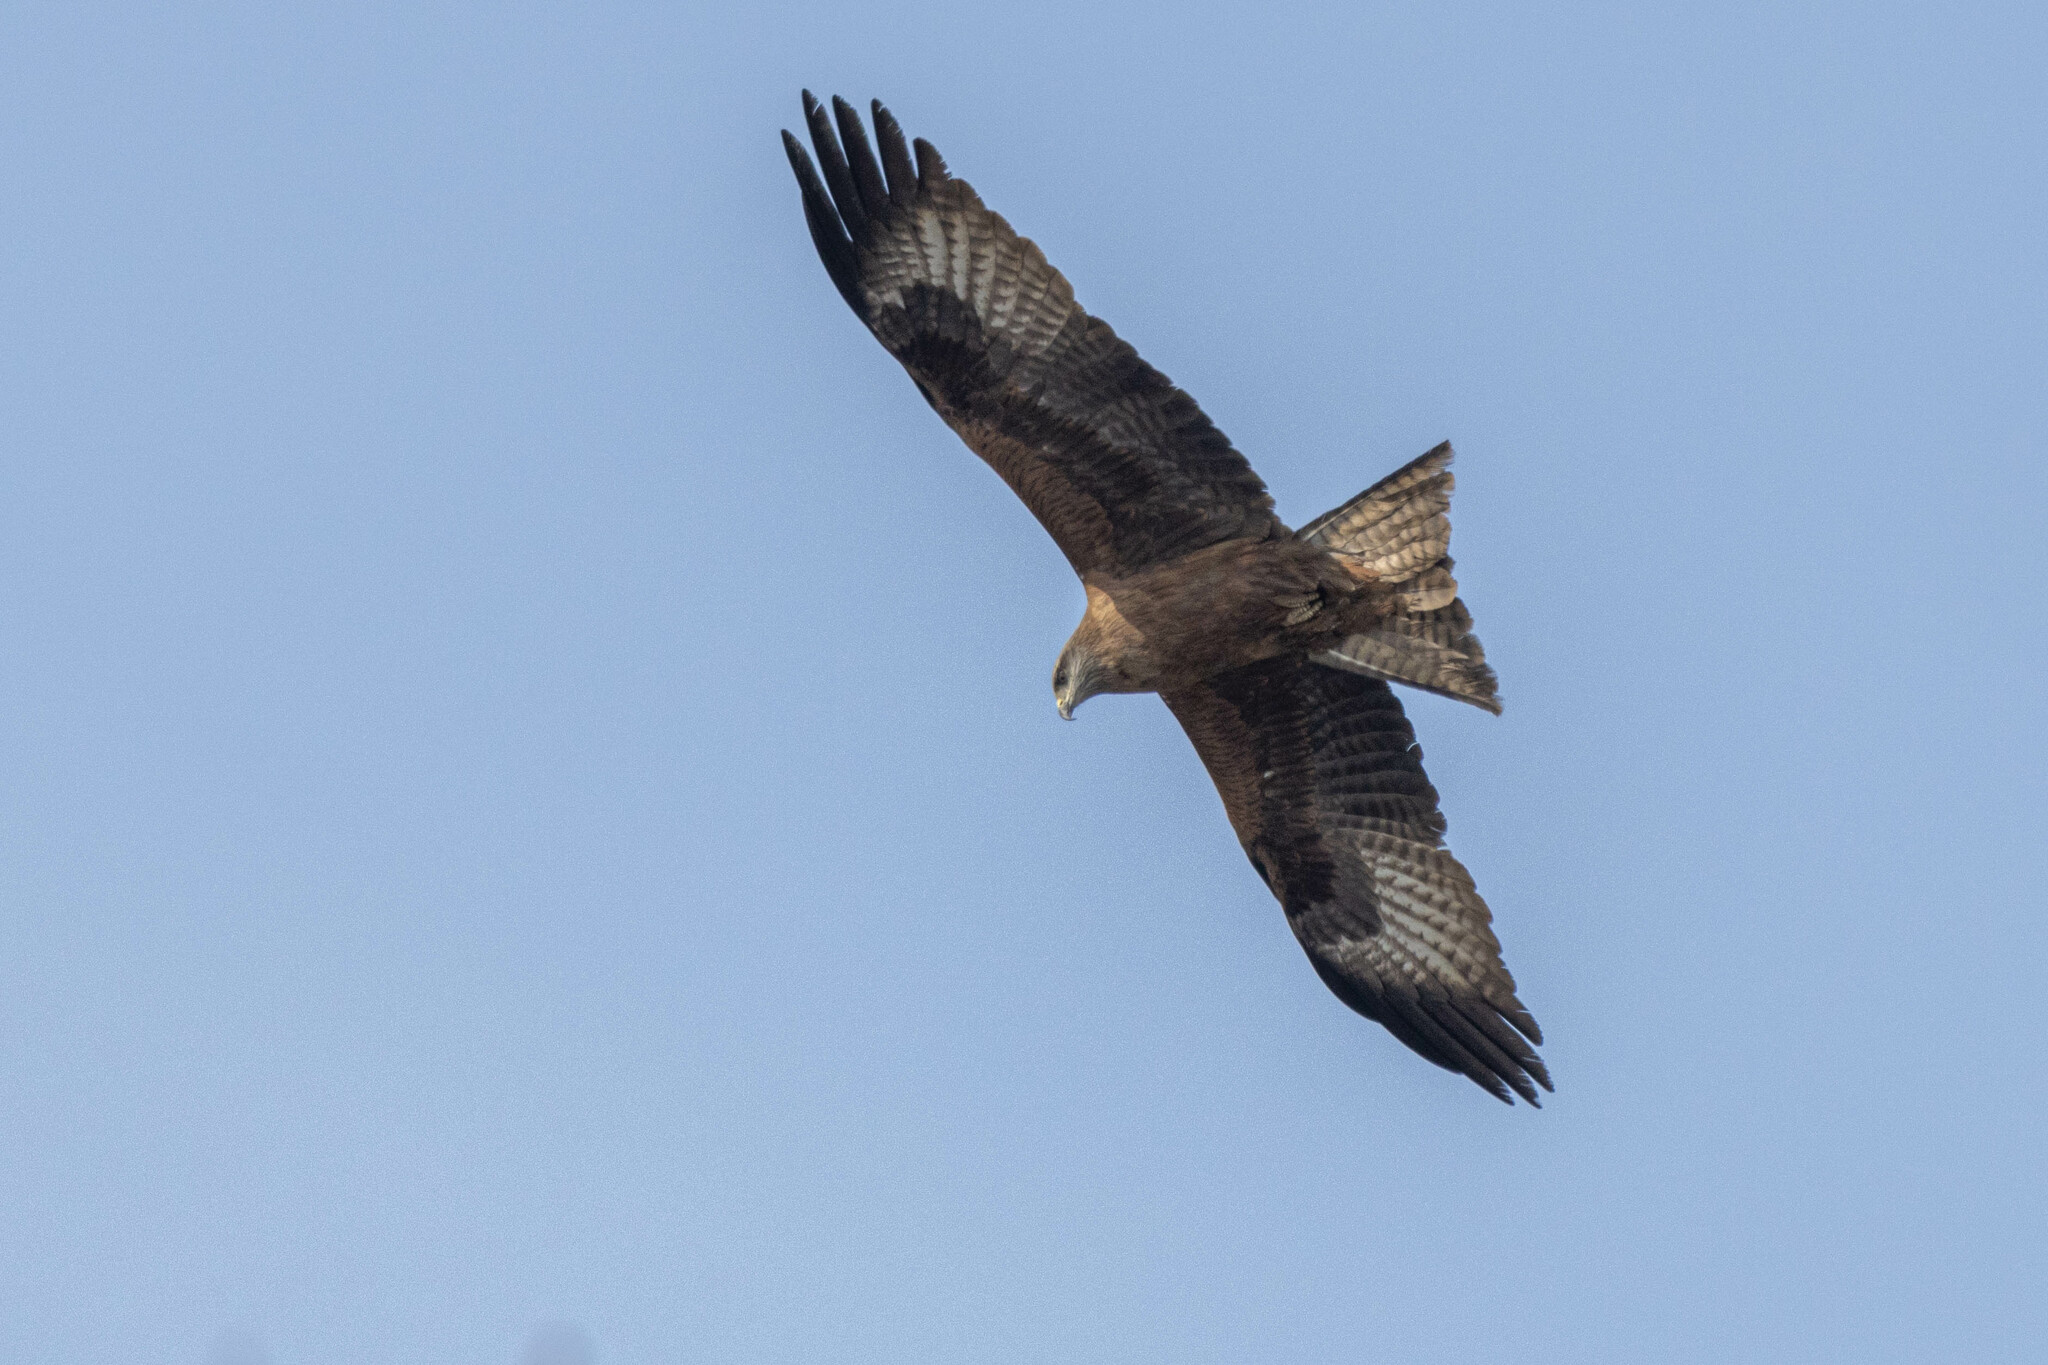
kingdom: Animalia
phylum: Chordata
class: Aves
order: Accipitriformes
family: Accipitridae
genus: Milvus
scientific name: Milvus migrans
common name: Black kite
